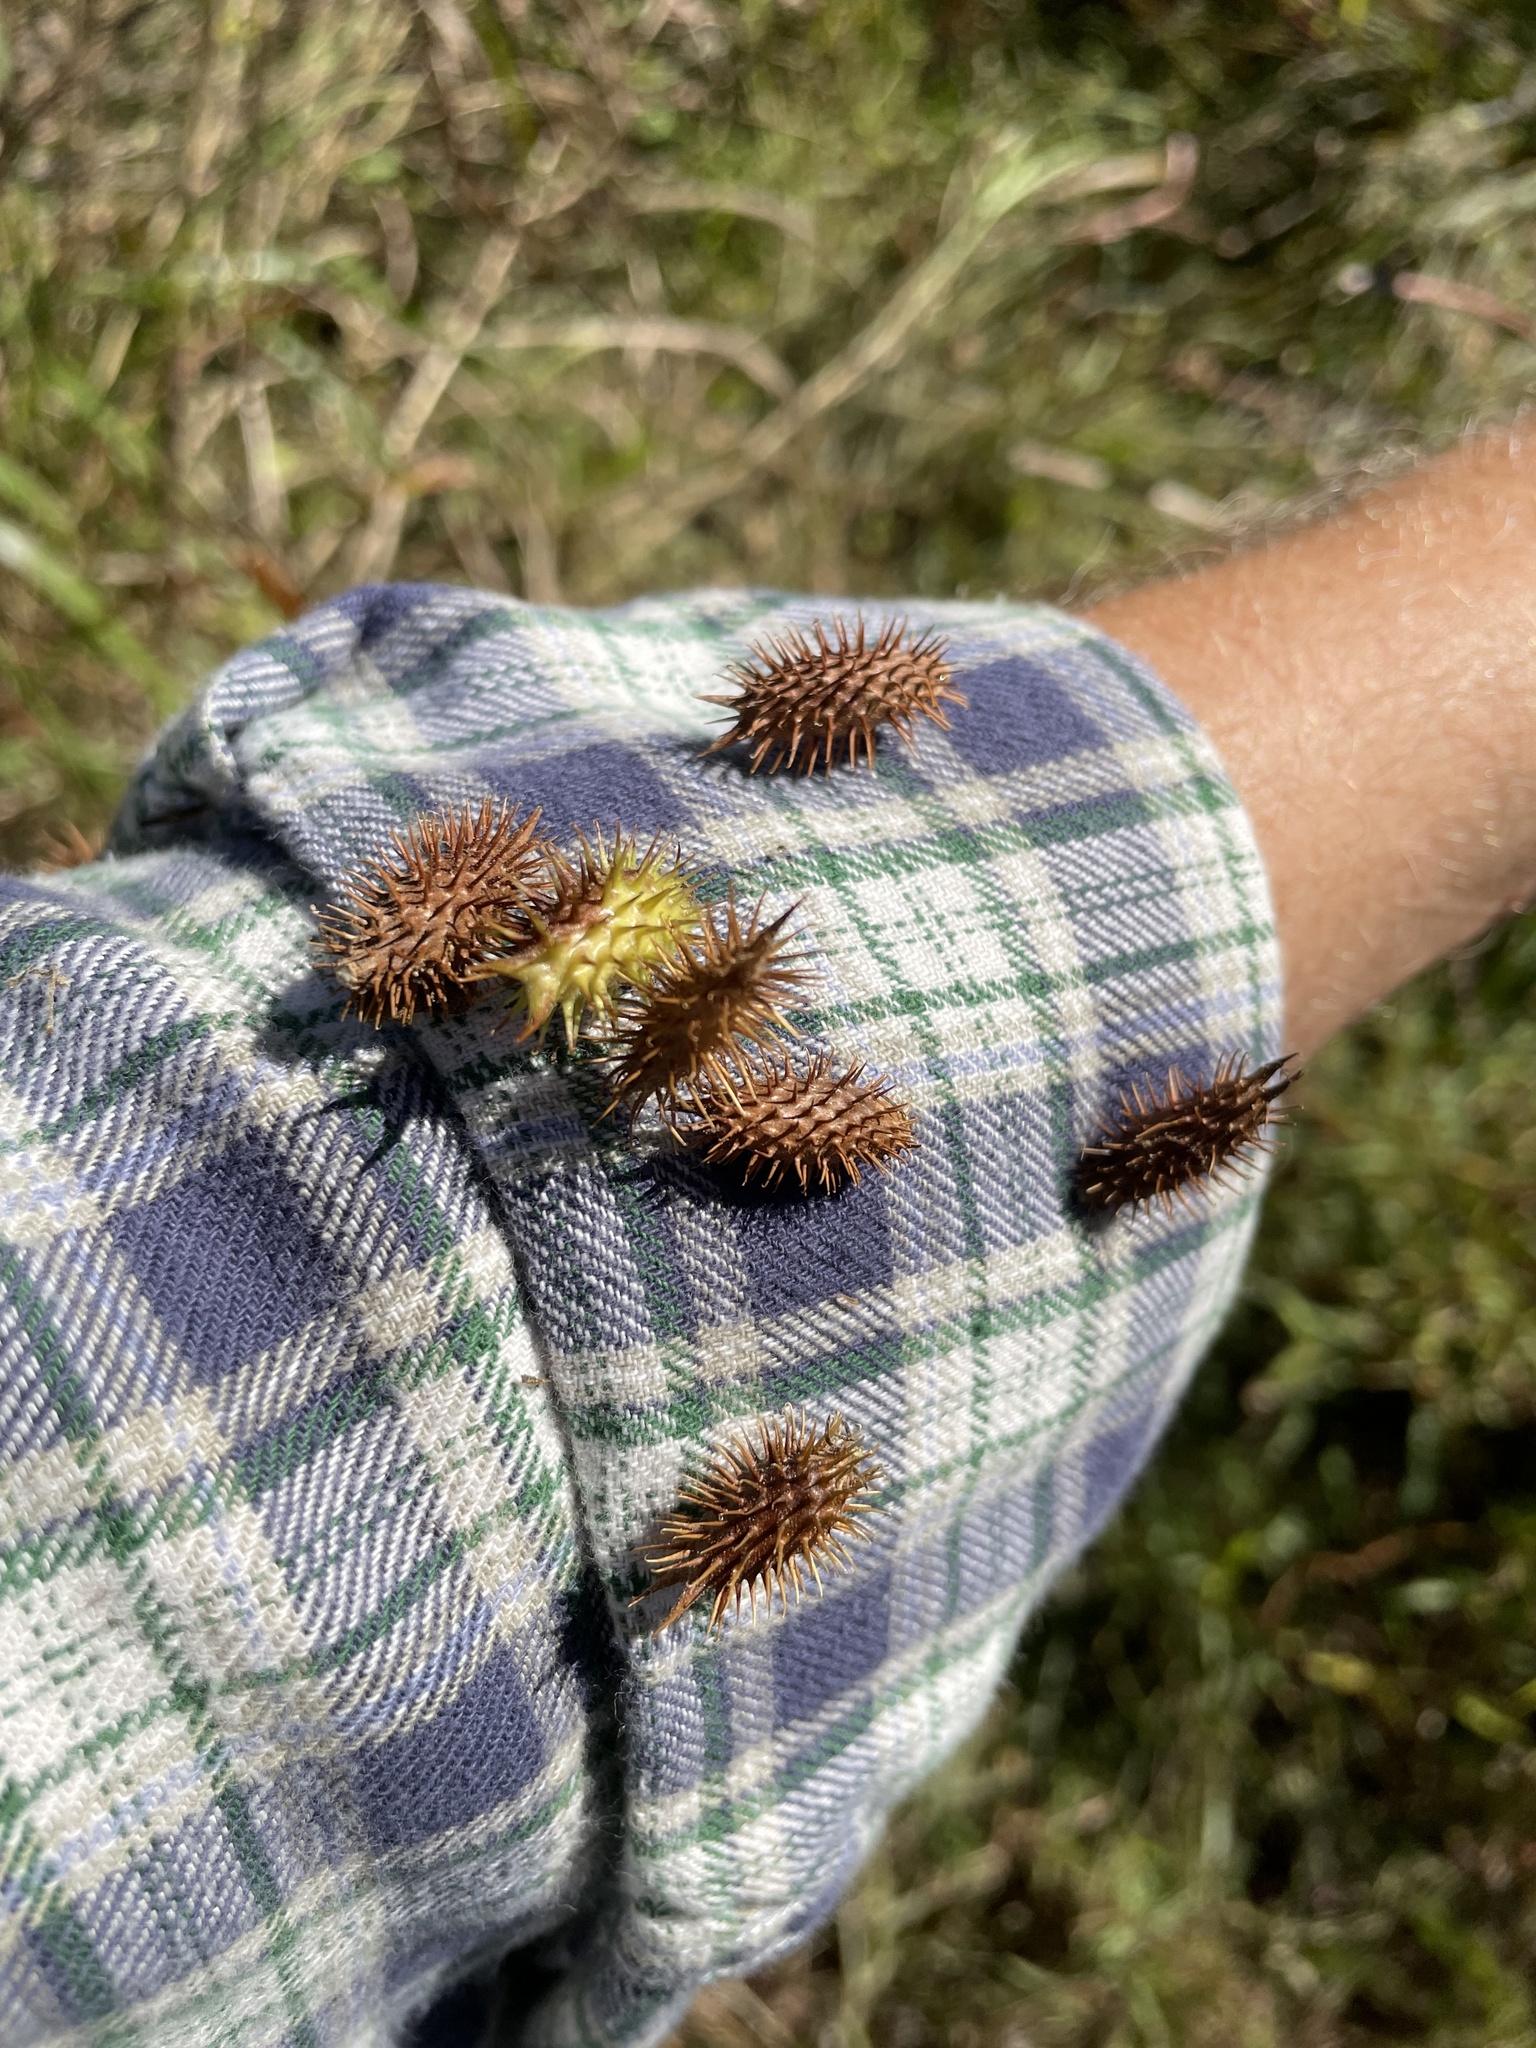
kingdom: Plantae
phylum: Tracheophyta
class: Magnoliopsida
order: Asterales
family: Asteraceae
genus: Xanthium
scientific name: Xanthium strumarium
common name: Rough cocklebur
